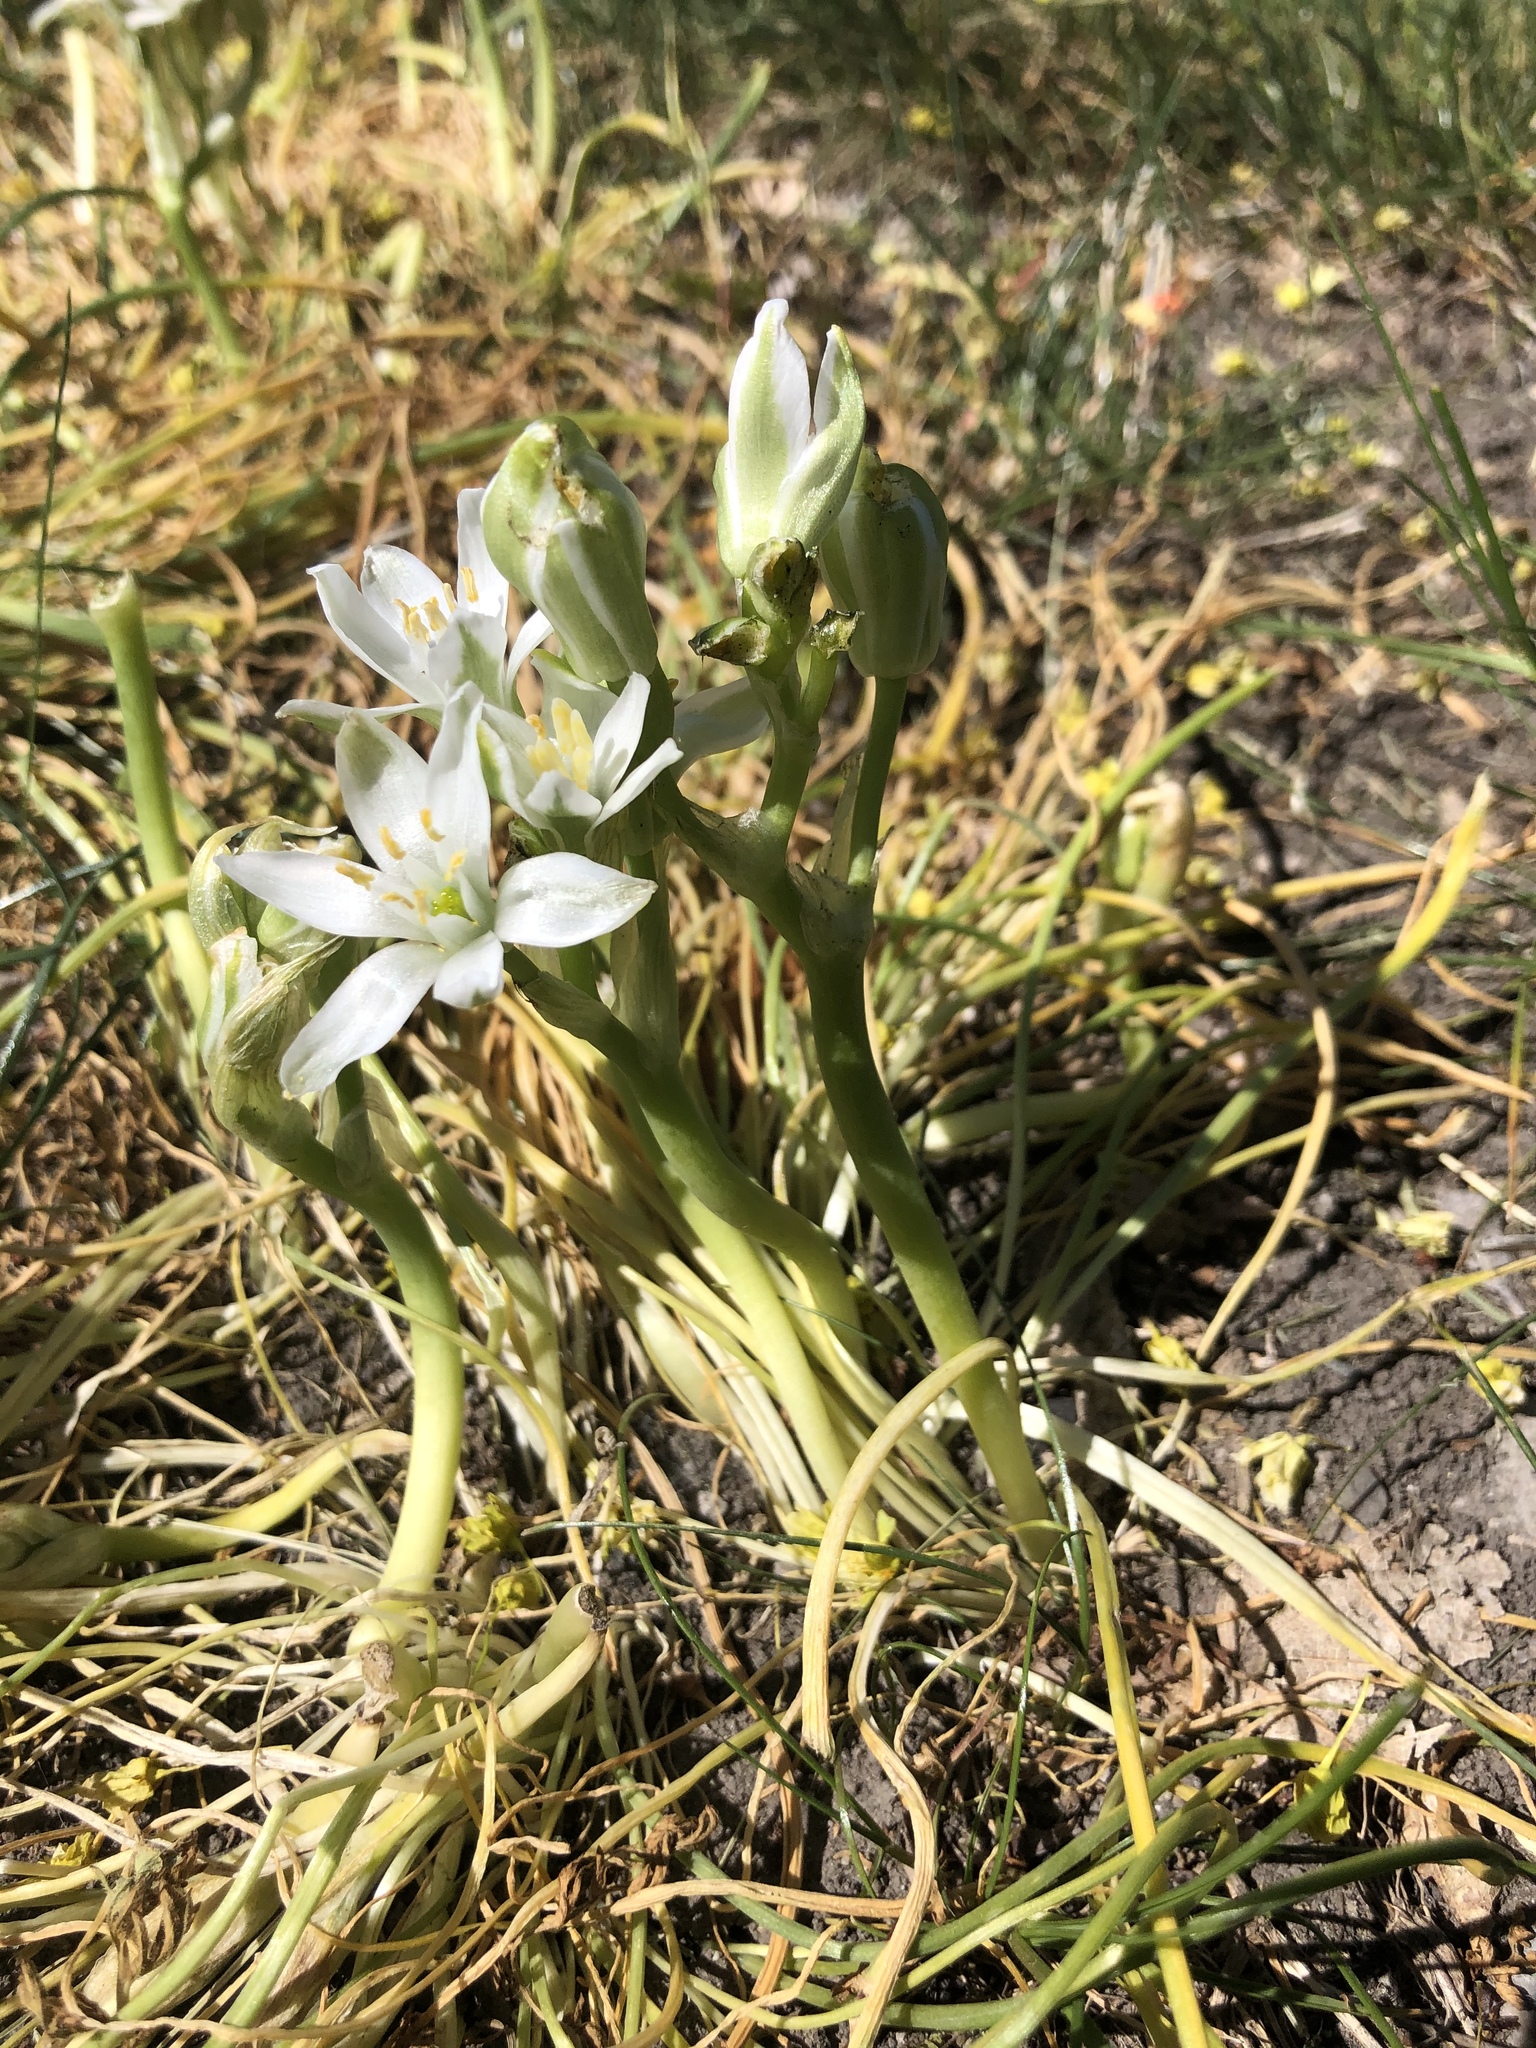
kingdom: Plantae
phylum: Tracheophyta
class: Liliopsida
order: Asparagales
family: Asparagaceae
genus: Ornithogalum
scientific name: Ornithogalum umbellatum
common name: Garden star-of-bethlehem
